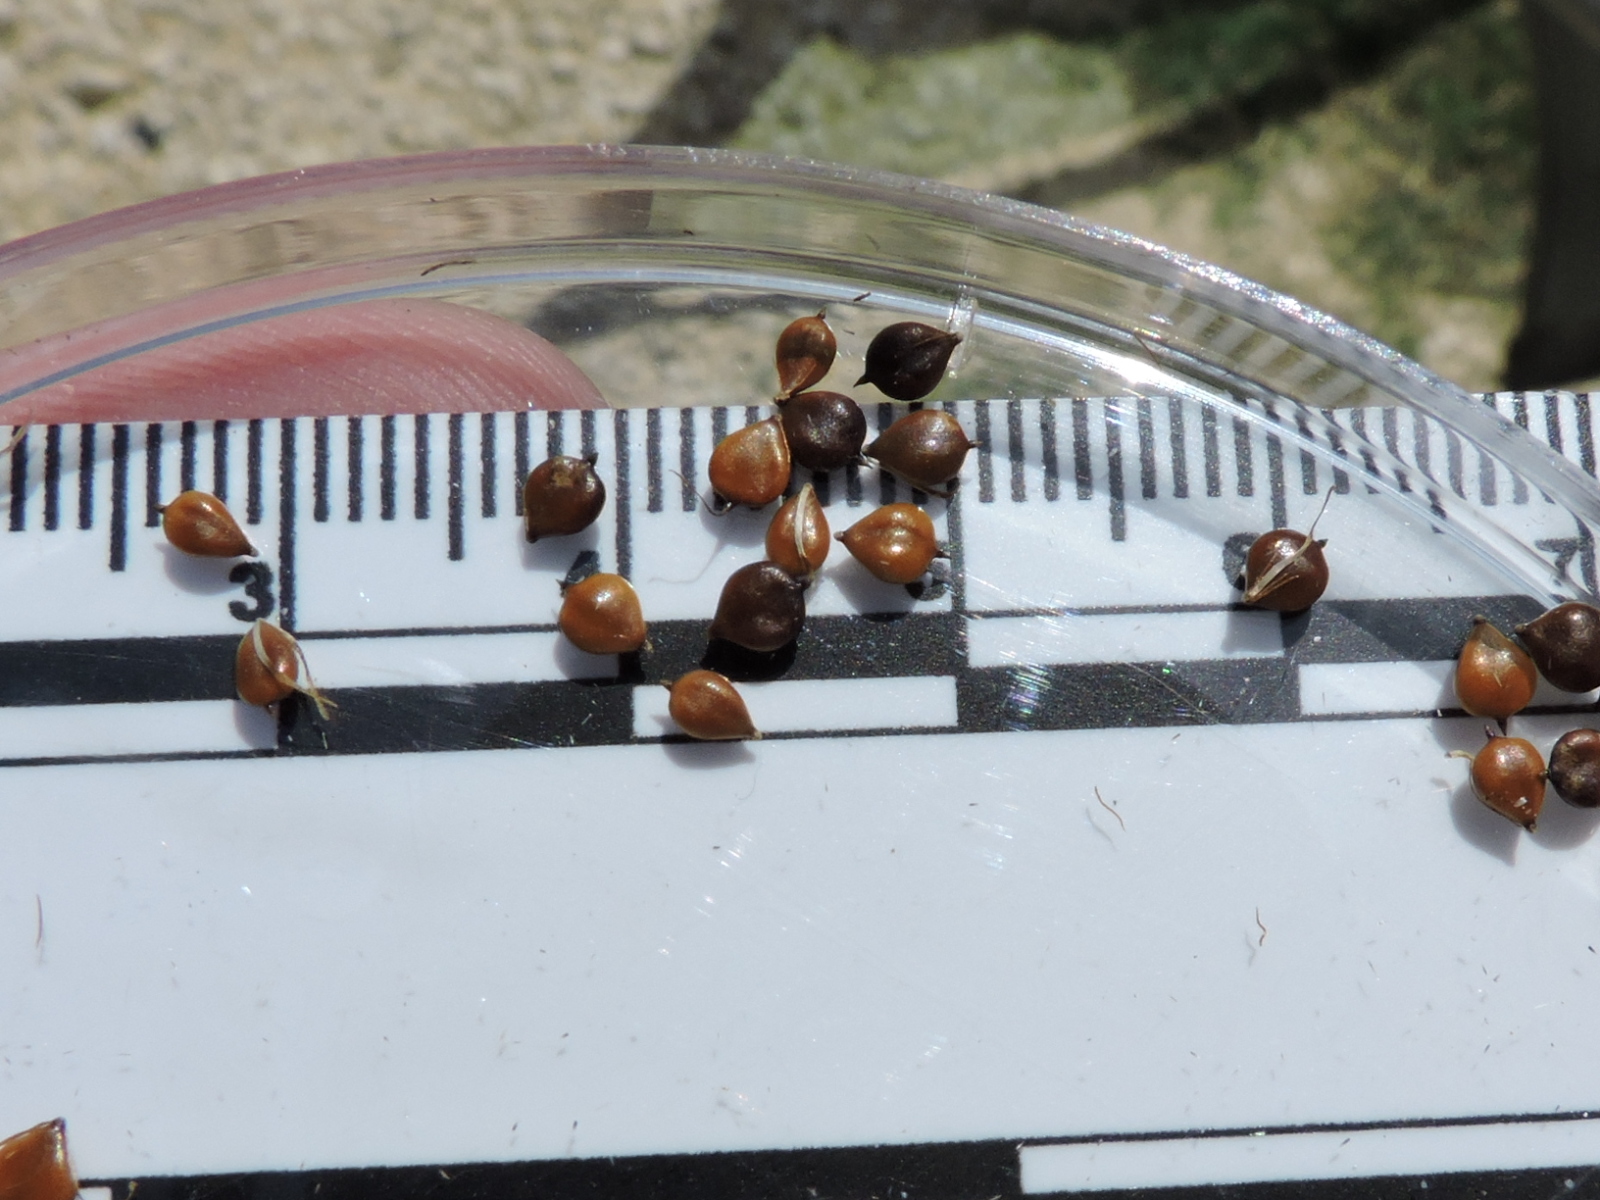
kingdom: Plantae
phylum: Tracheophyta
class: Liliopsida
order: Poales
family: Cyperaceae
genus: Bolboschoenus
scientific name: Bolboschoenus robustus
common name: Seacoast bulrush
